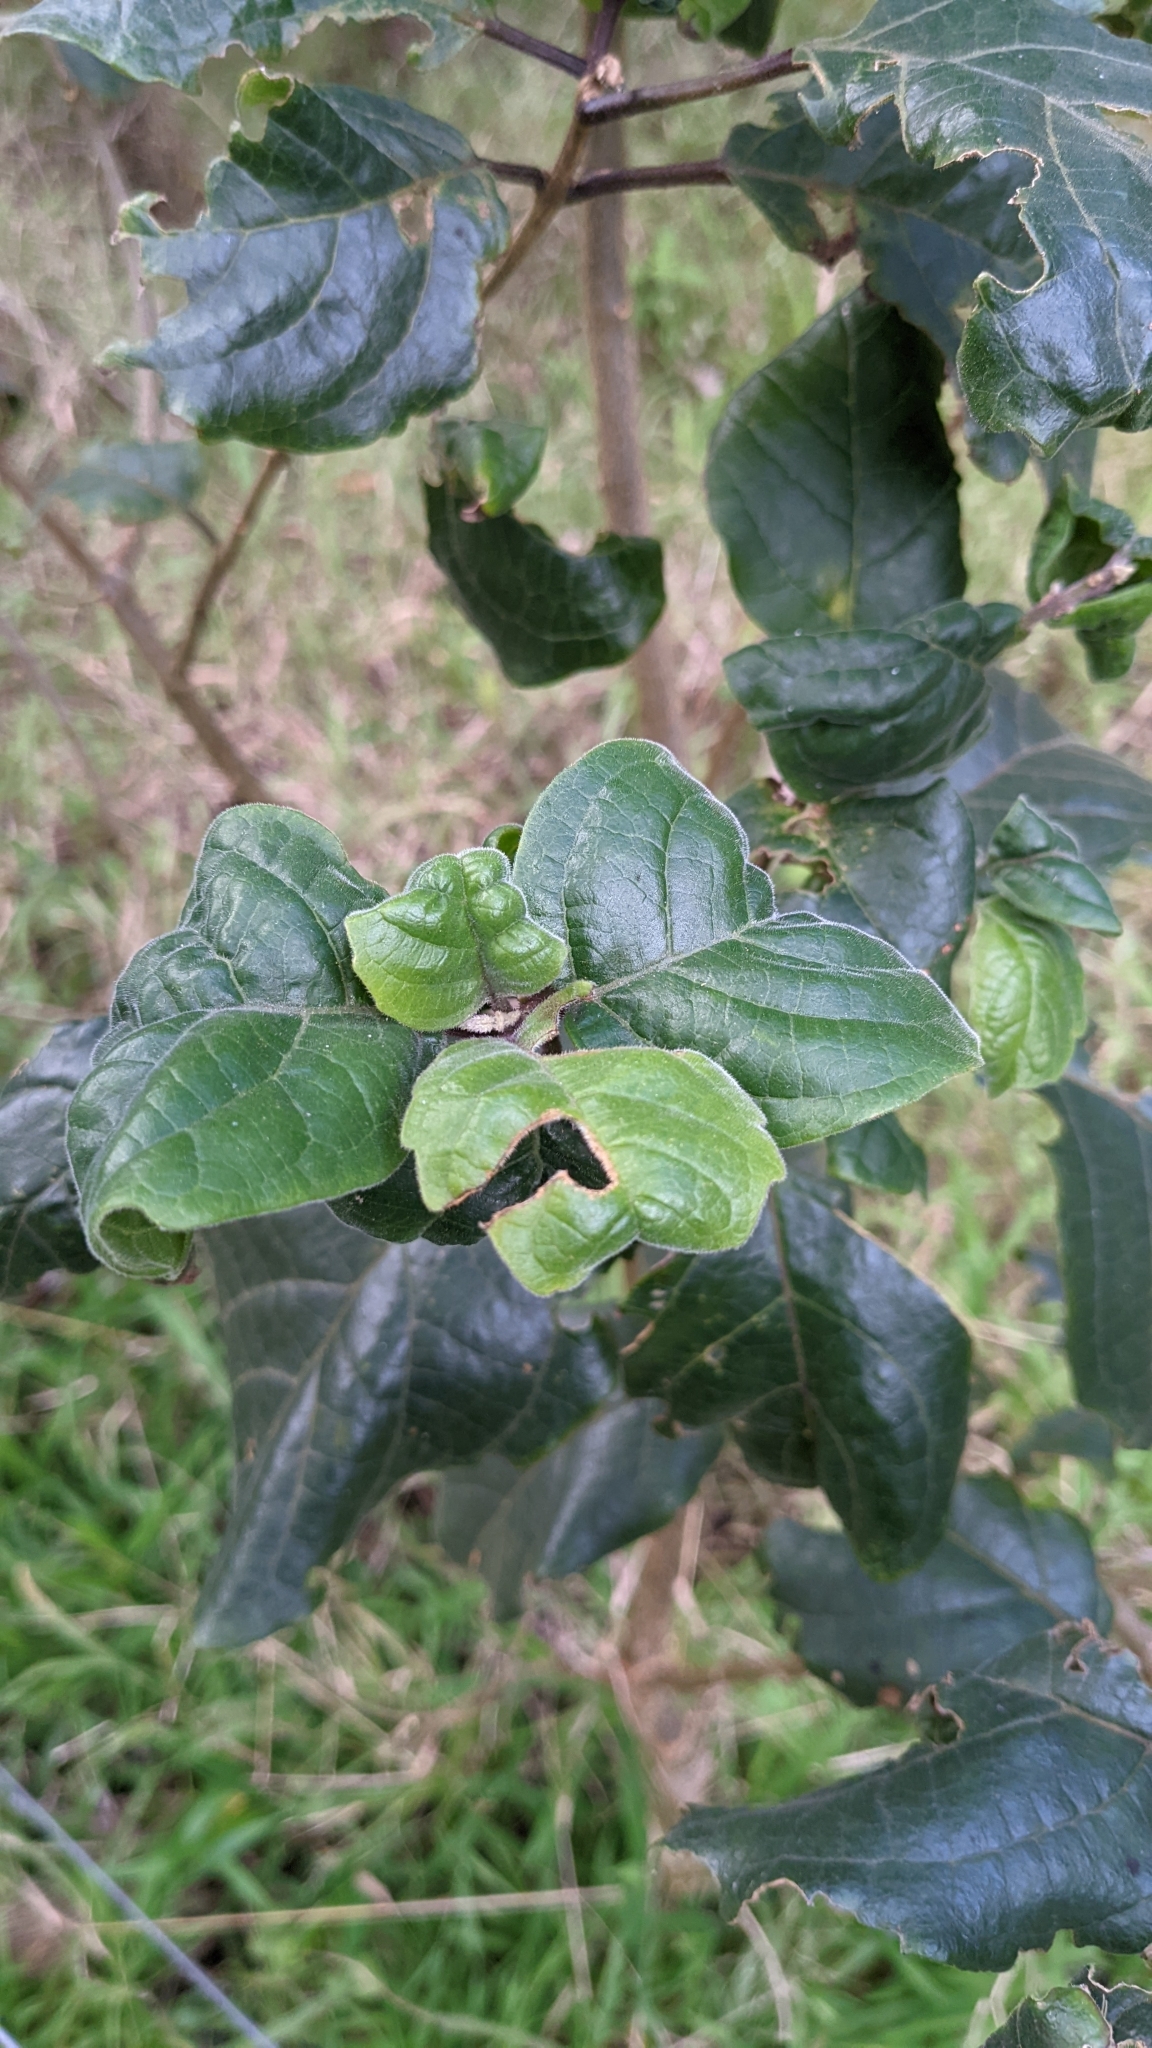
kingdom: Plantae
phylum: Tracheophyta
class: Magnoliopsida
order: Lamiales
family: Lamiaceae
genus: Clerodendrum
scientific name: Clerodendrum tomentosum
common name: Hairy clerodendrum
